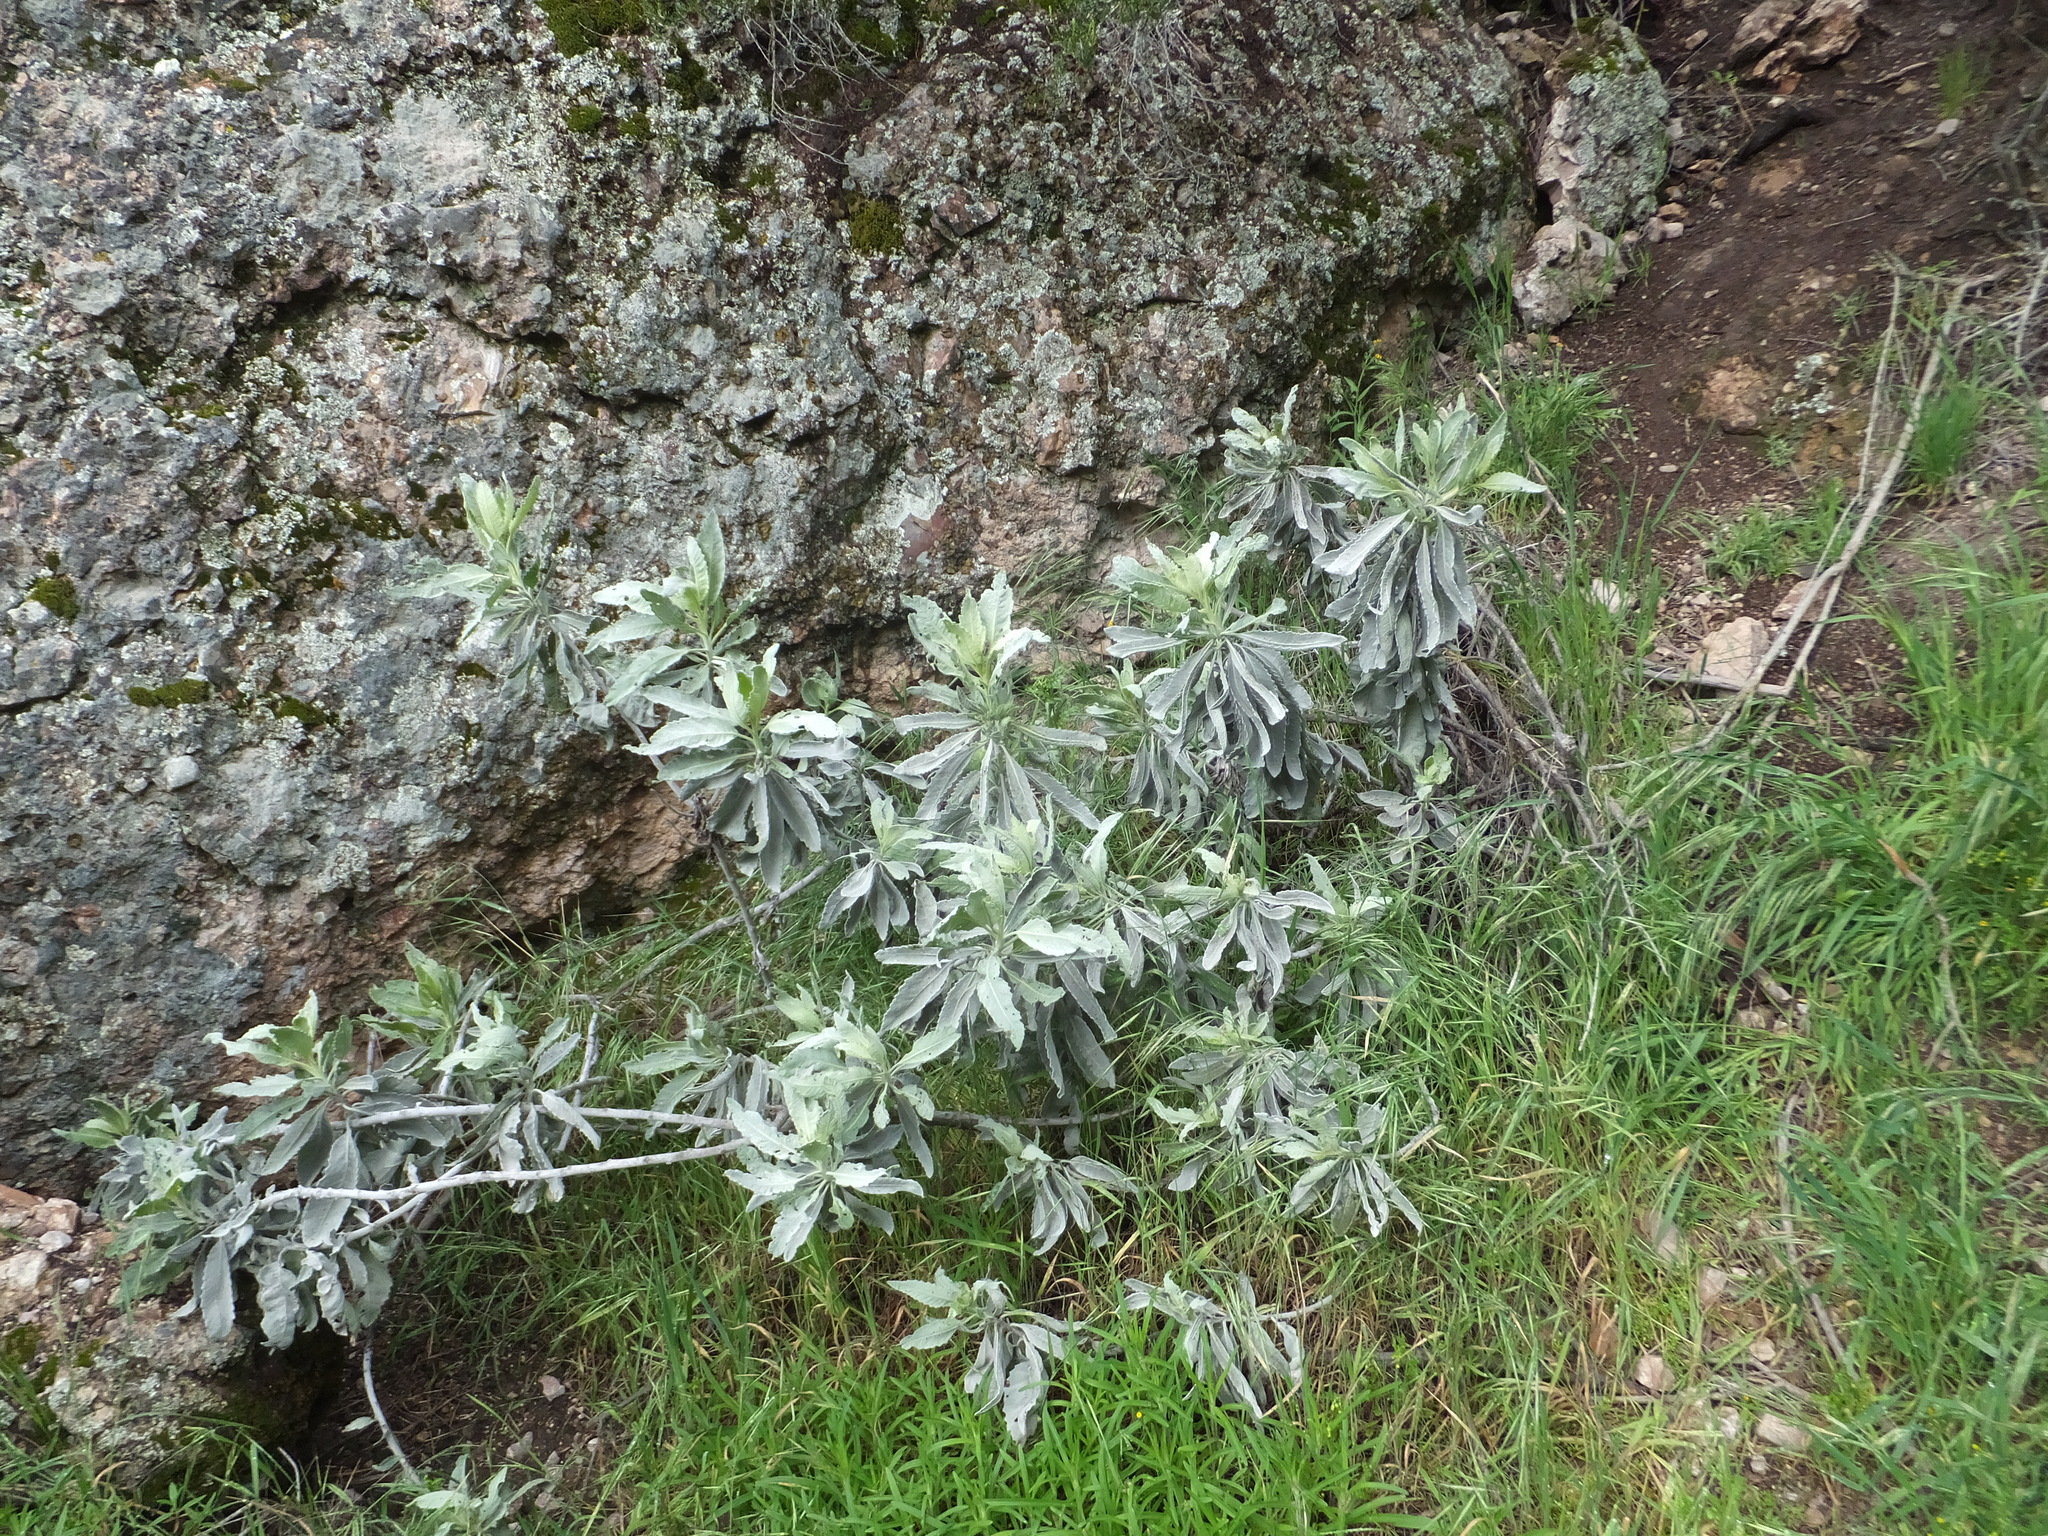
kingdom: Plantae
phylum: Tracheophyta
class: Magnoliopsida
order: Boraginales
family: Namaceae
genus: Eriodictyon
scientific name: Eriodictyon tomentosum
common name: Woolly yerba-santa
